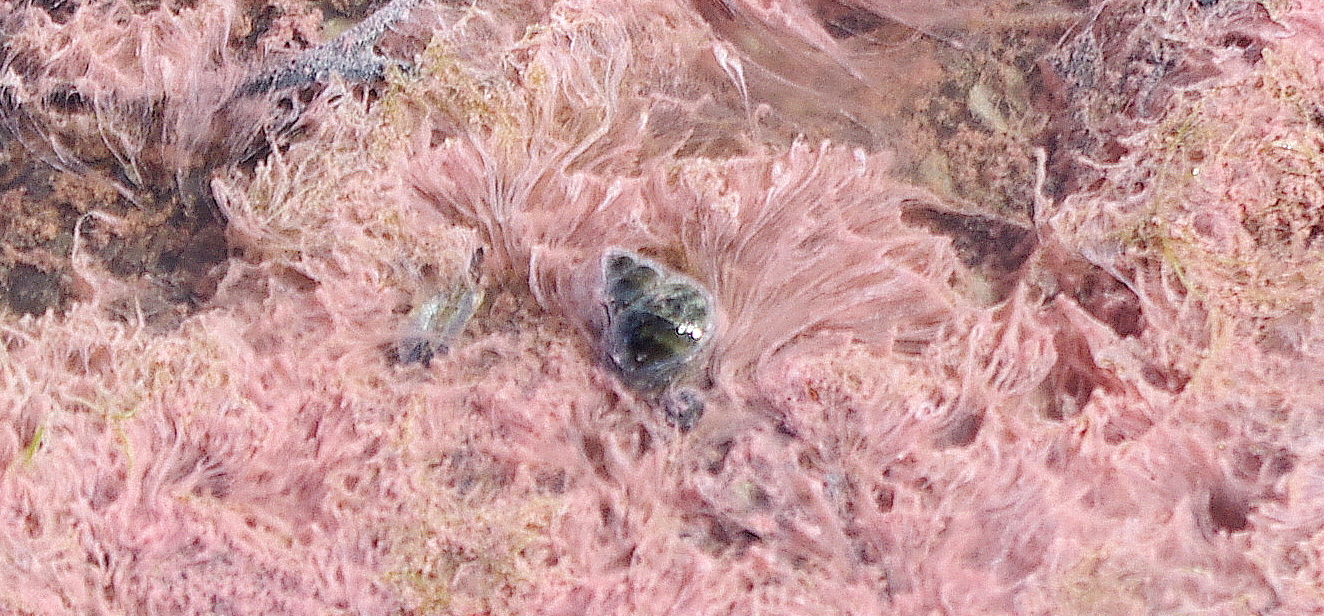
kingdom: Animalia
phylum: Mollusca
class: Gastropoda
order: Littorinimorpha
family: Littorinidae
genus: Littorina
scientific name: Littorina saxatilis
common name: Black-lined periwinkle
